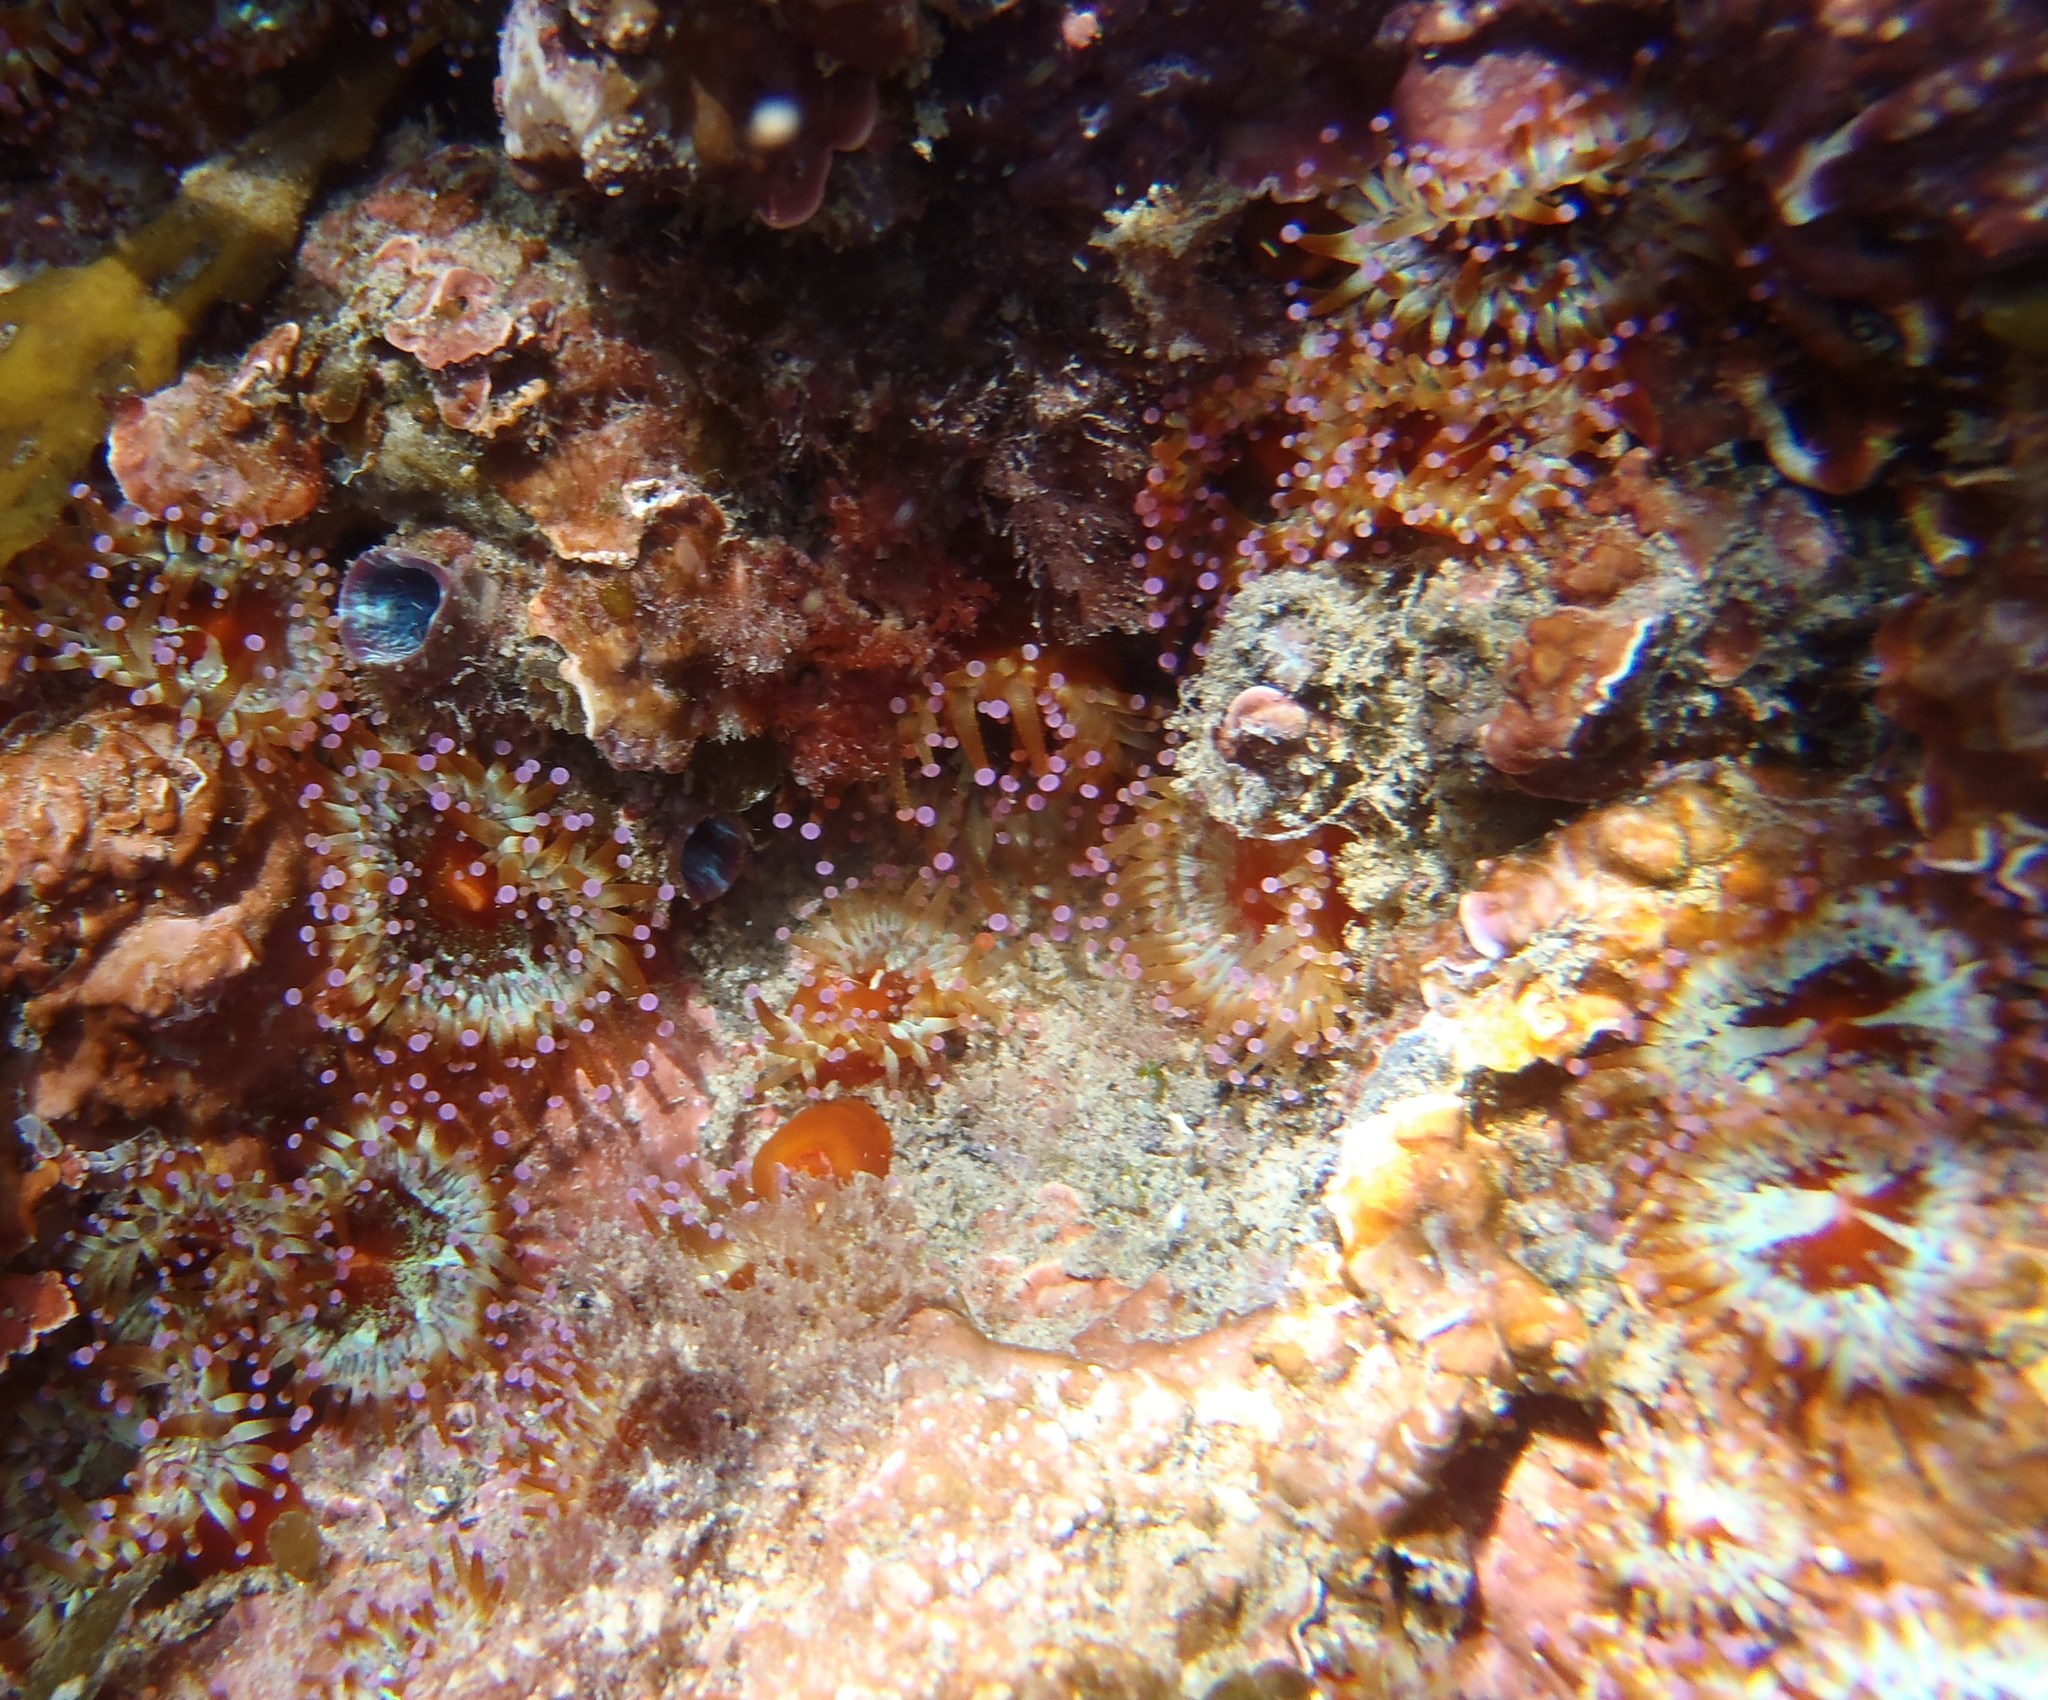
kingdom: Animalia
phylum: Cnidaria
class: Anthozoa
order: Corallimorpharia
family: Corallimorphidae
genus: Corynactis
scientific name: Corynactis australis
